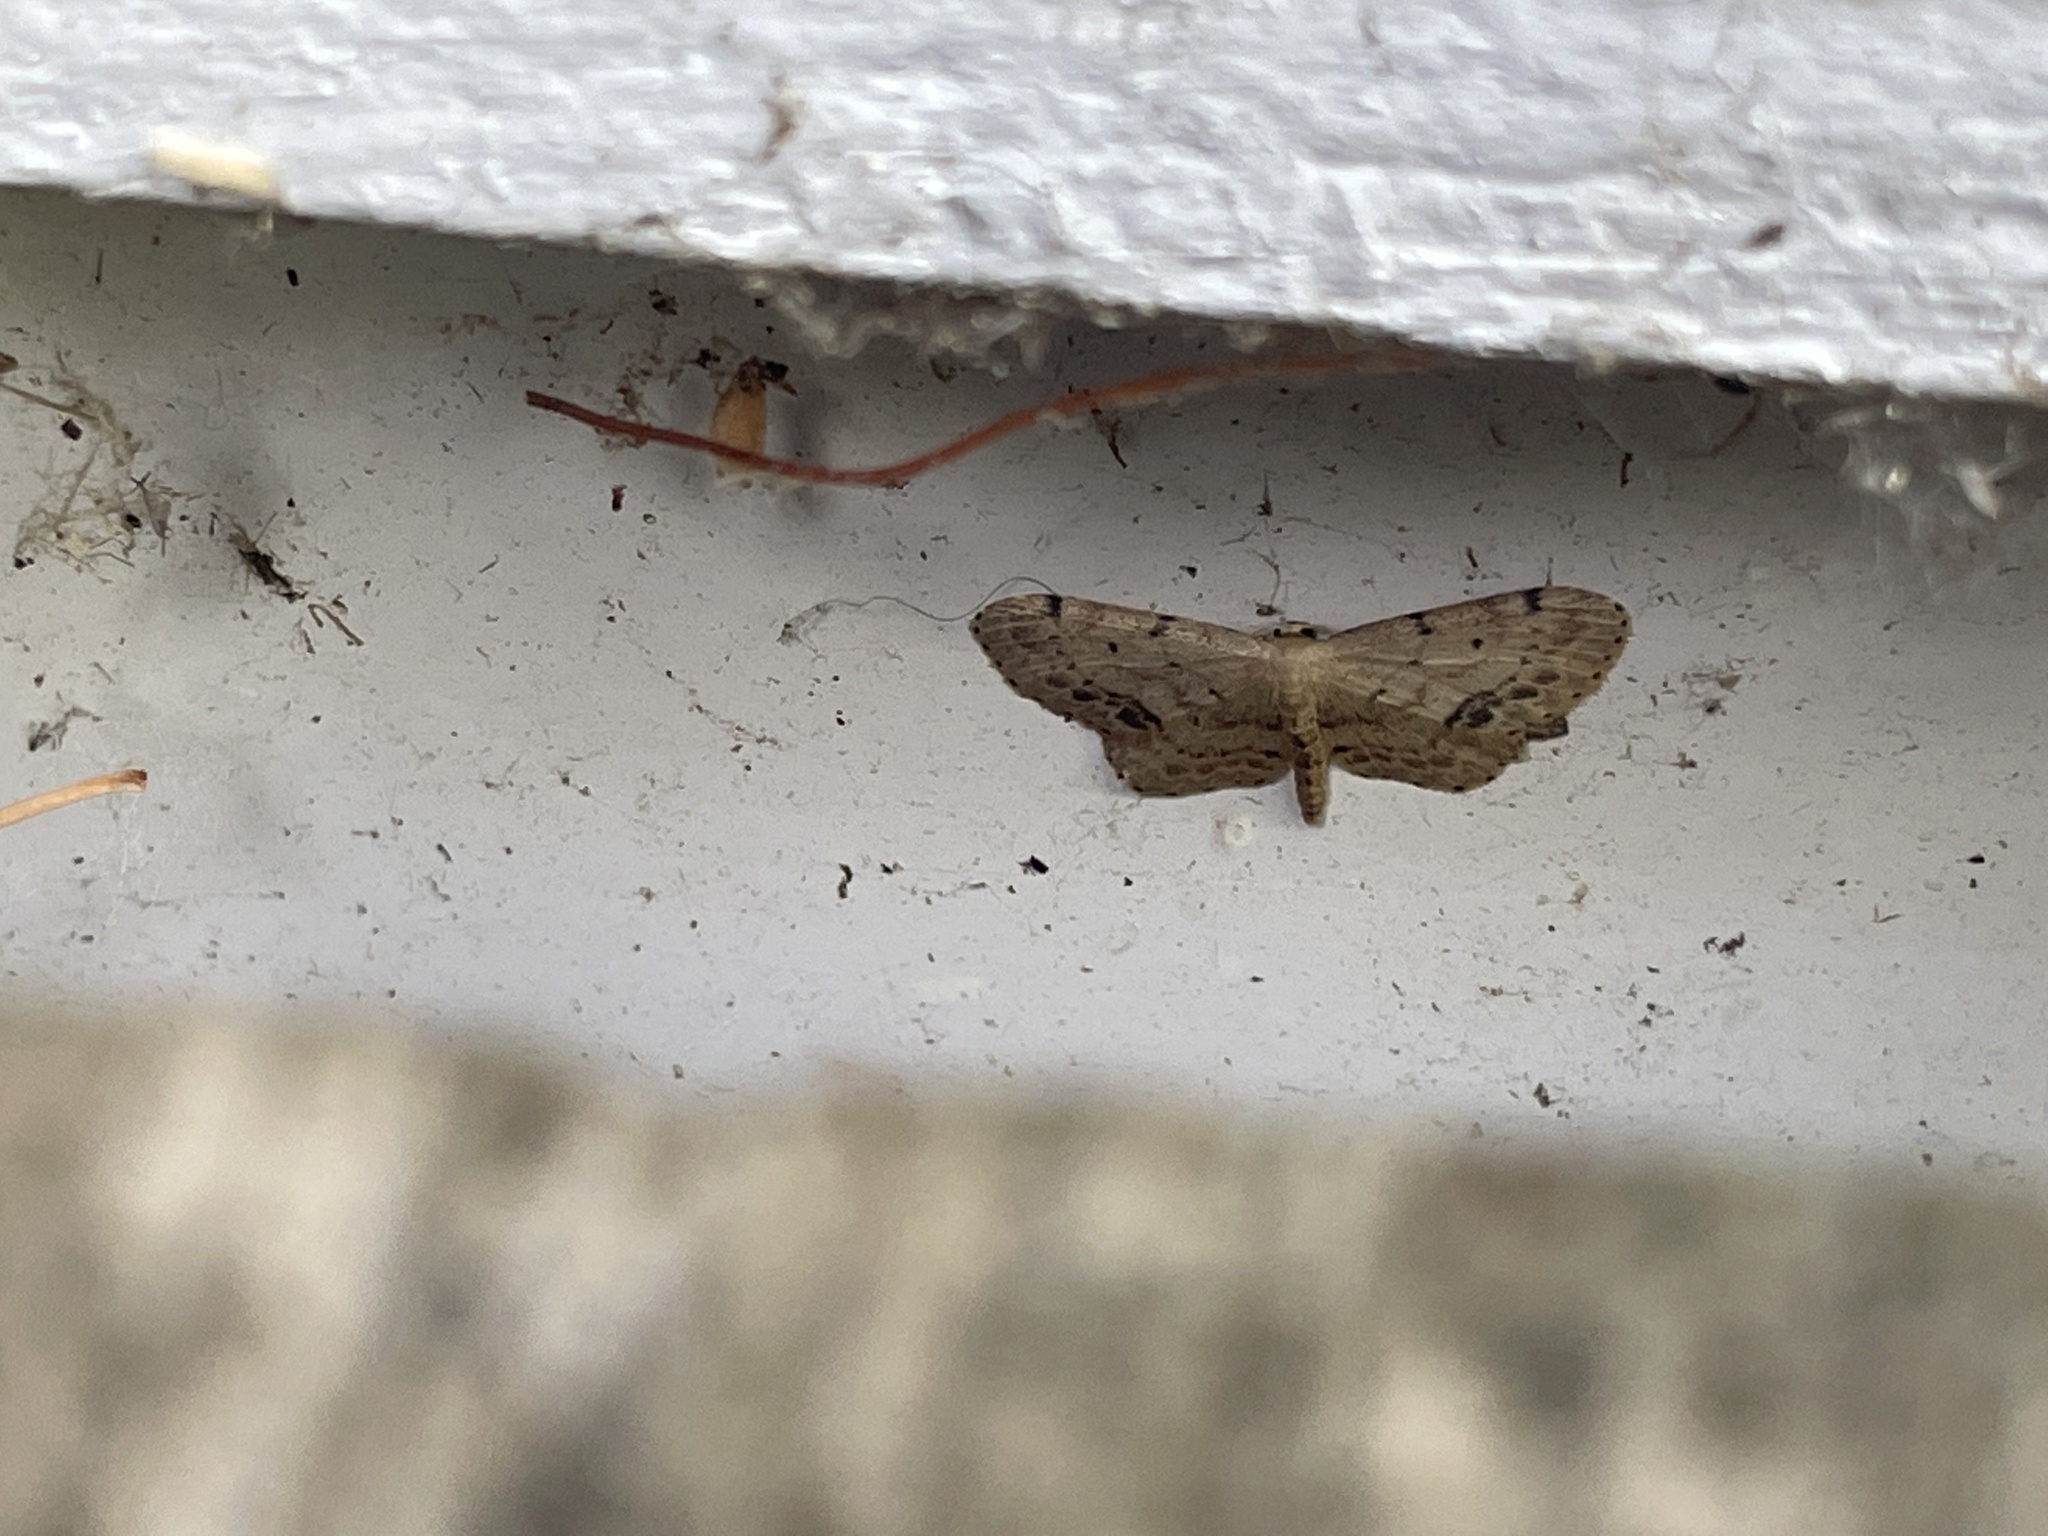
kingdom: Animalia
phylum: Arthropoda
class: Insecta
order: Lepidoptera
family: Geometridae
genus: Idaea
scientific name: Idaea dimidiata
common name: Single-dotted wave
